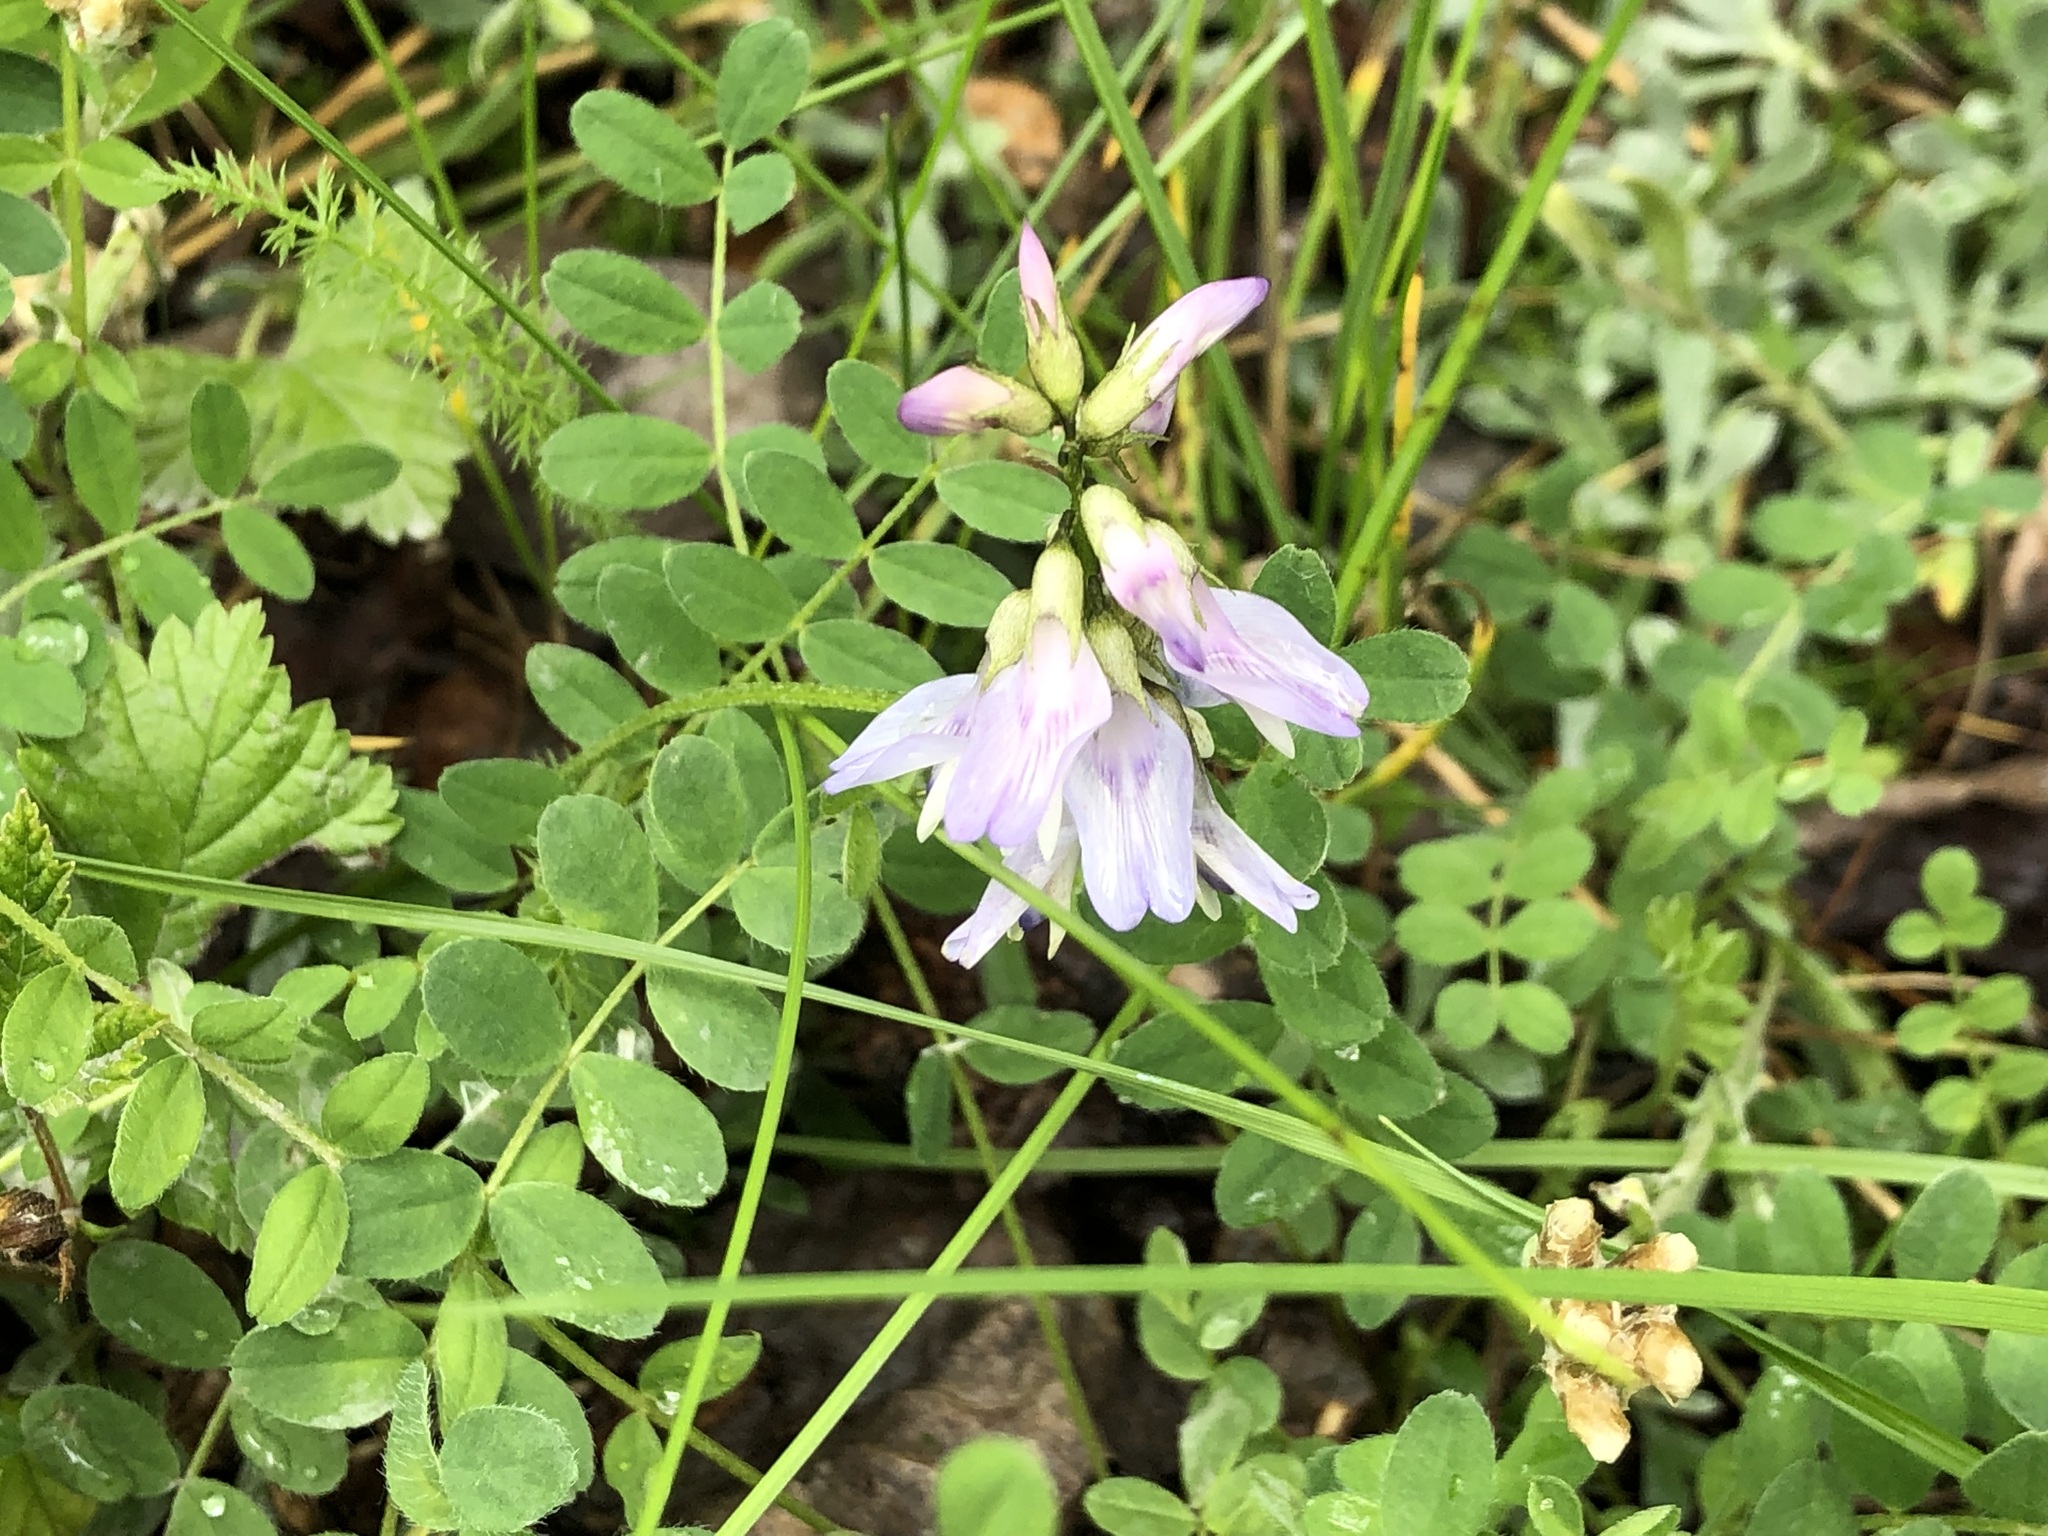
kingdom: Plantae
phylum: Tracheophyta
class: Magnoliopsida
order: Fabales
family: Fabaceae
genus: Astragalus
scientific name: Astragalus alpinus
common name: Alpine milk-vetch
